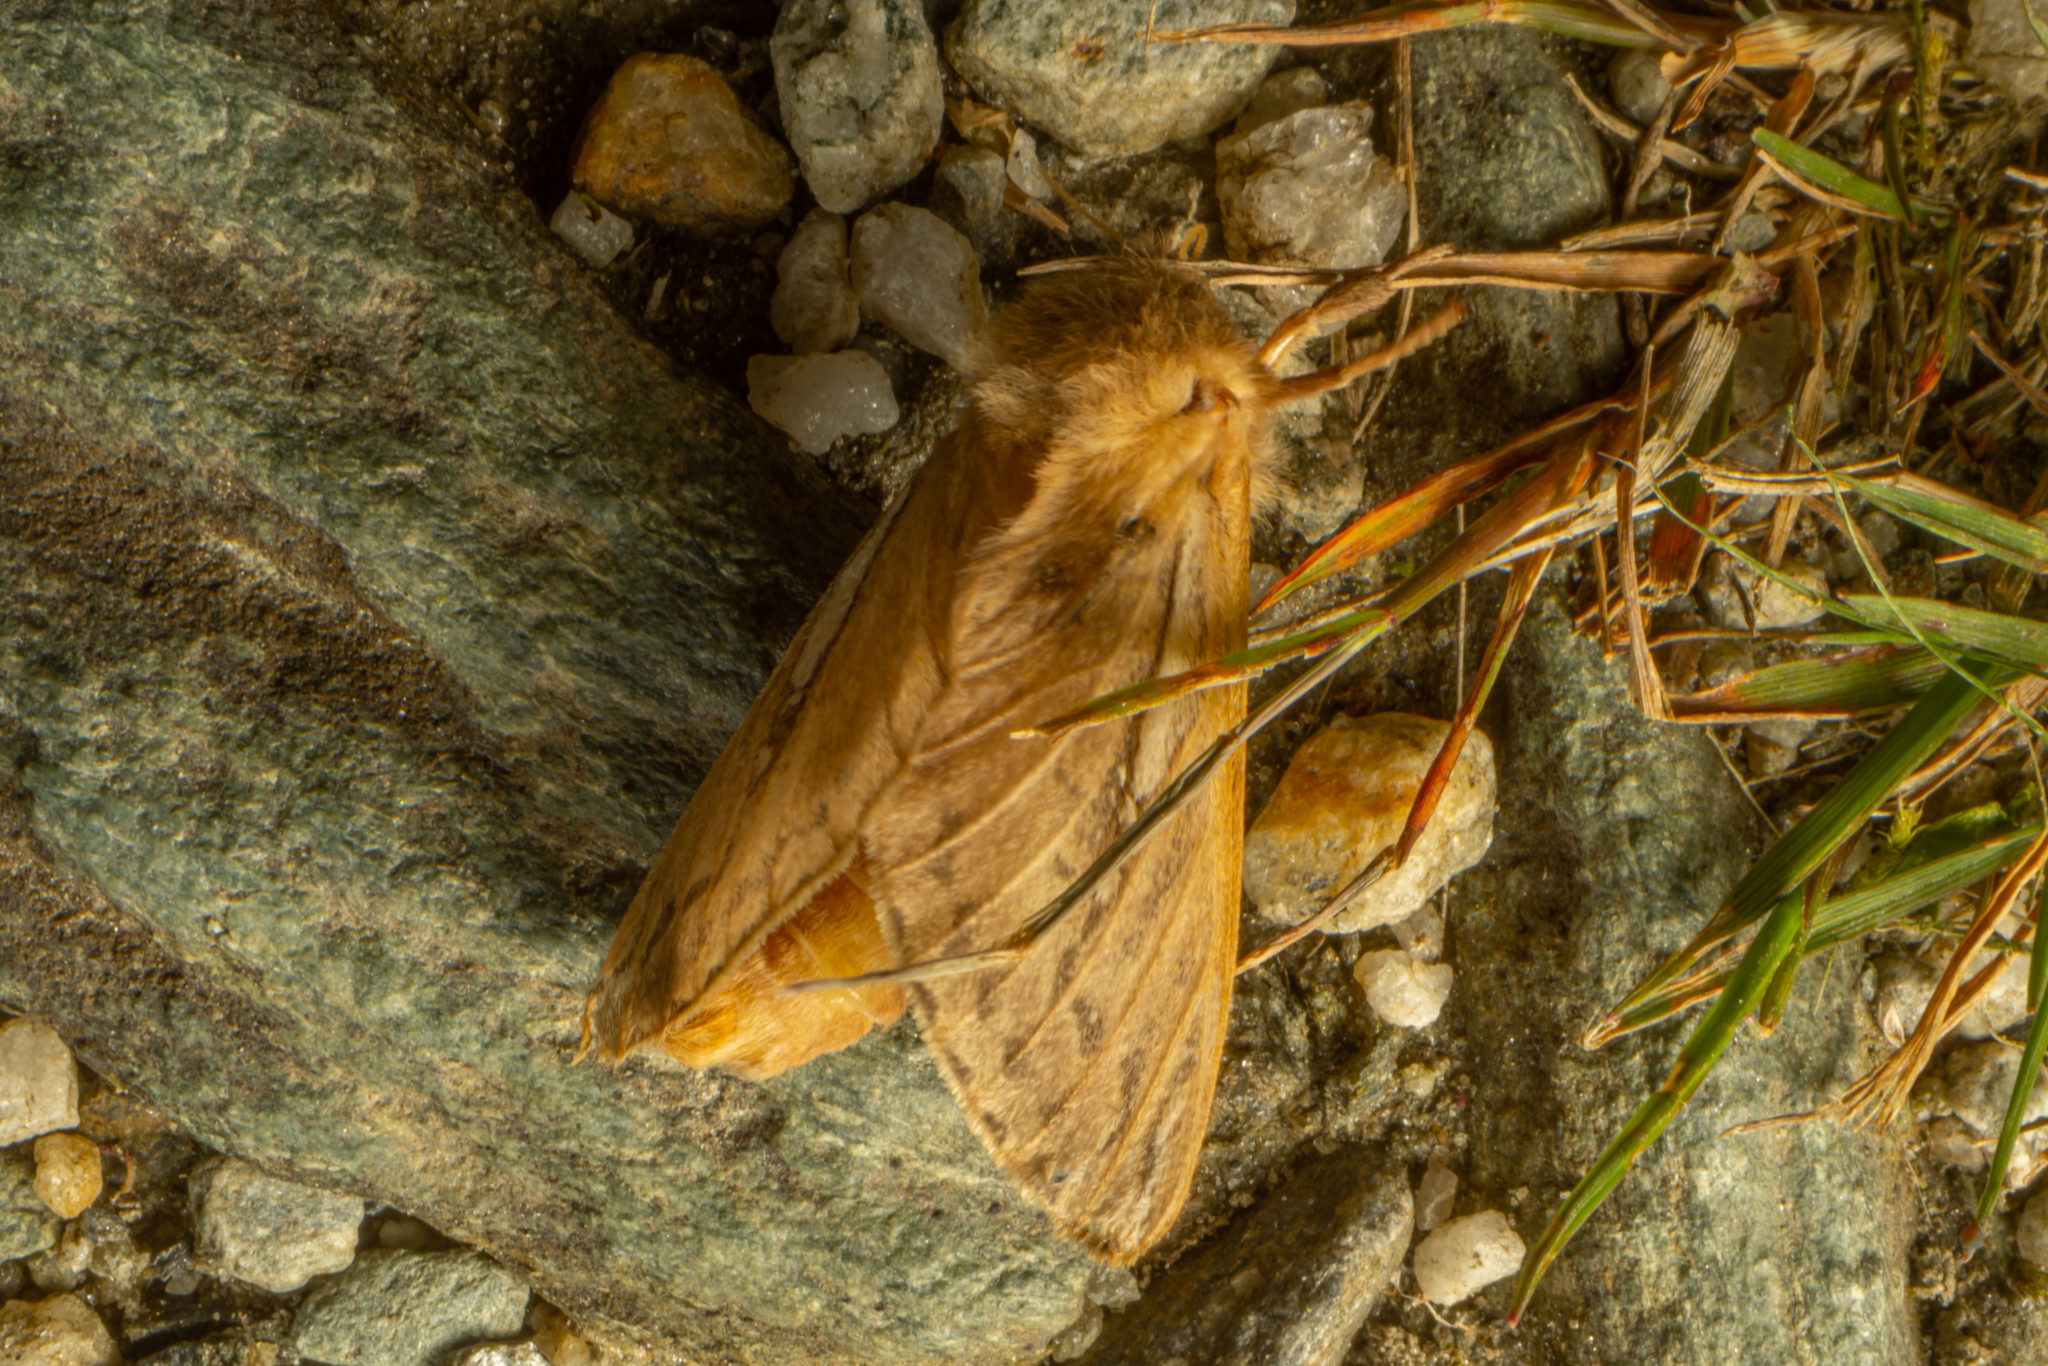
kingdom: Animalia
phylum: Arthropoda
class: Insecta
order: Lepidoptera
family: Hepialidae
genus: Wiseana
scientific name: Wiseana umbraculatus
